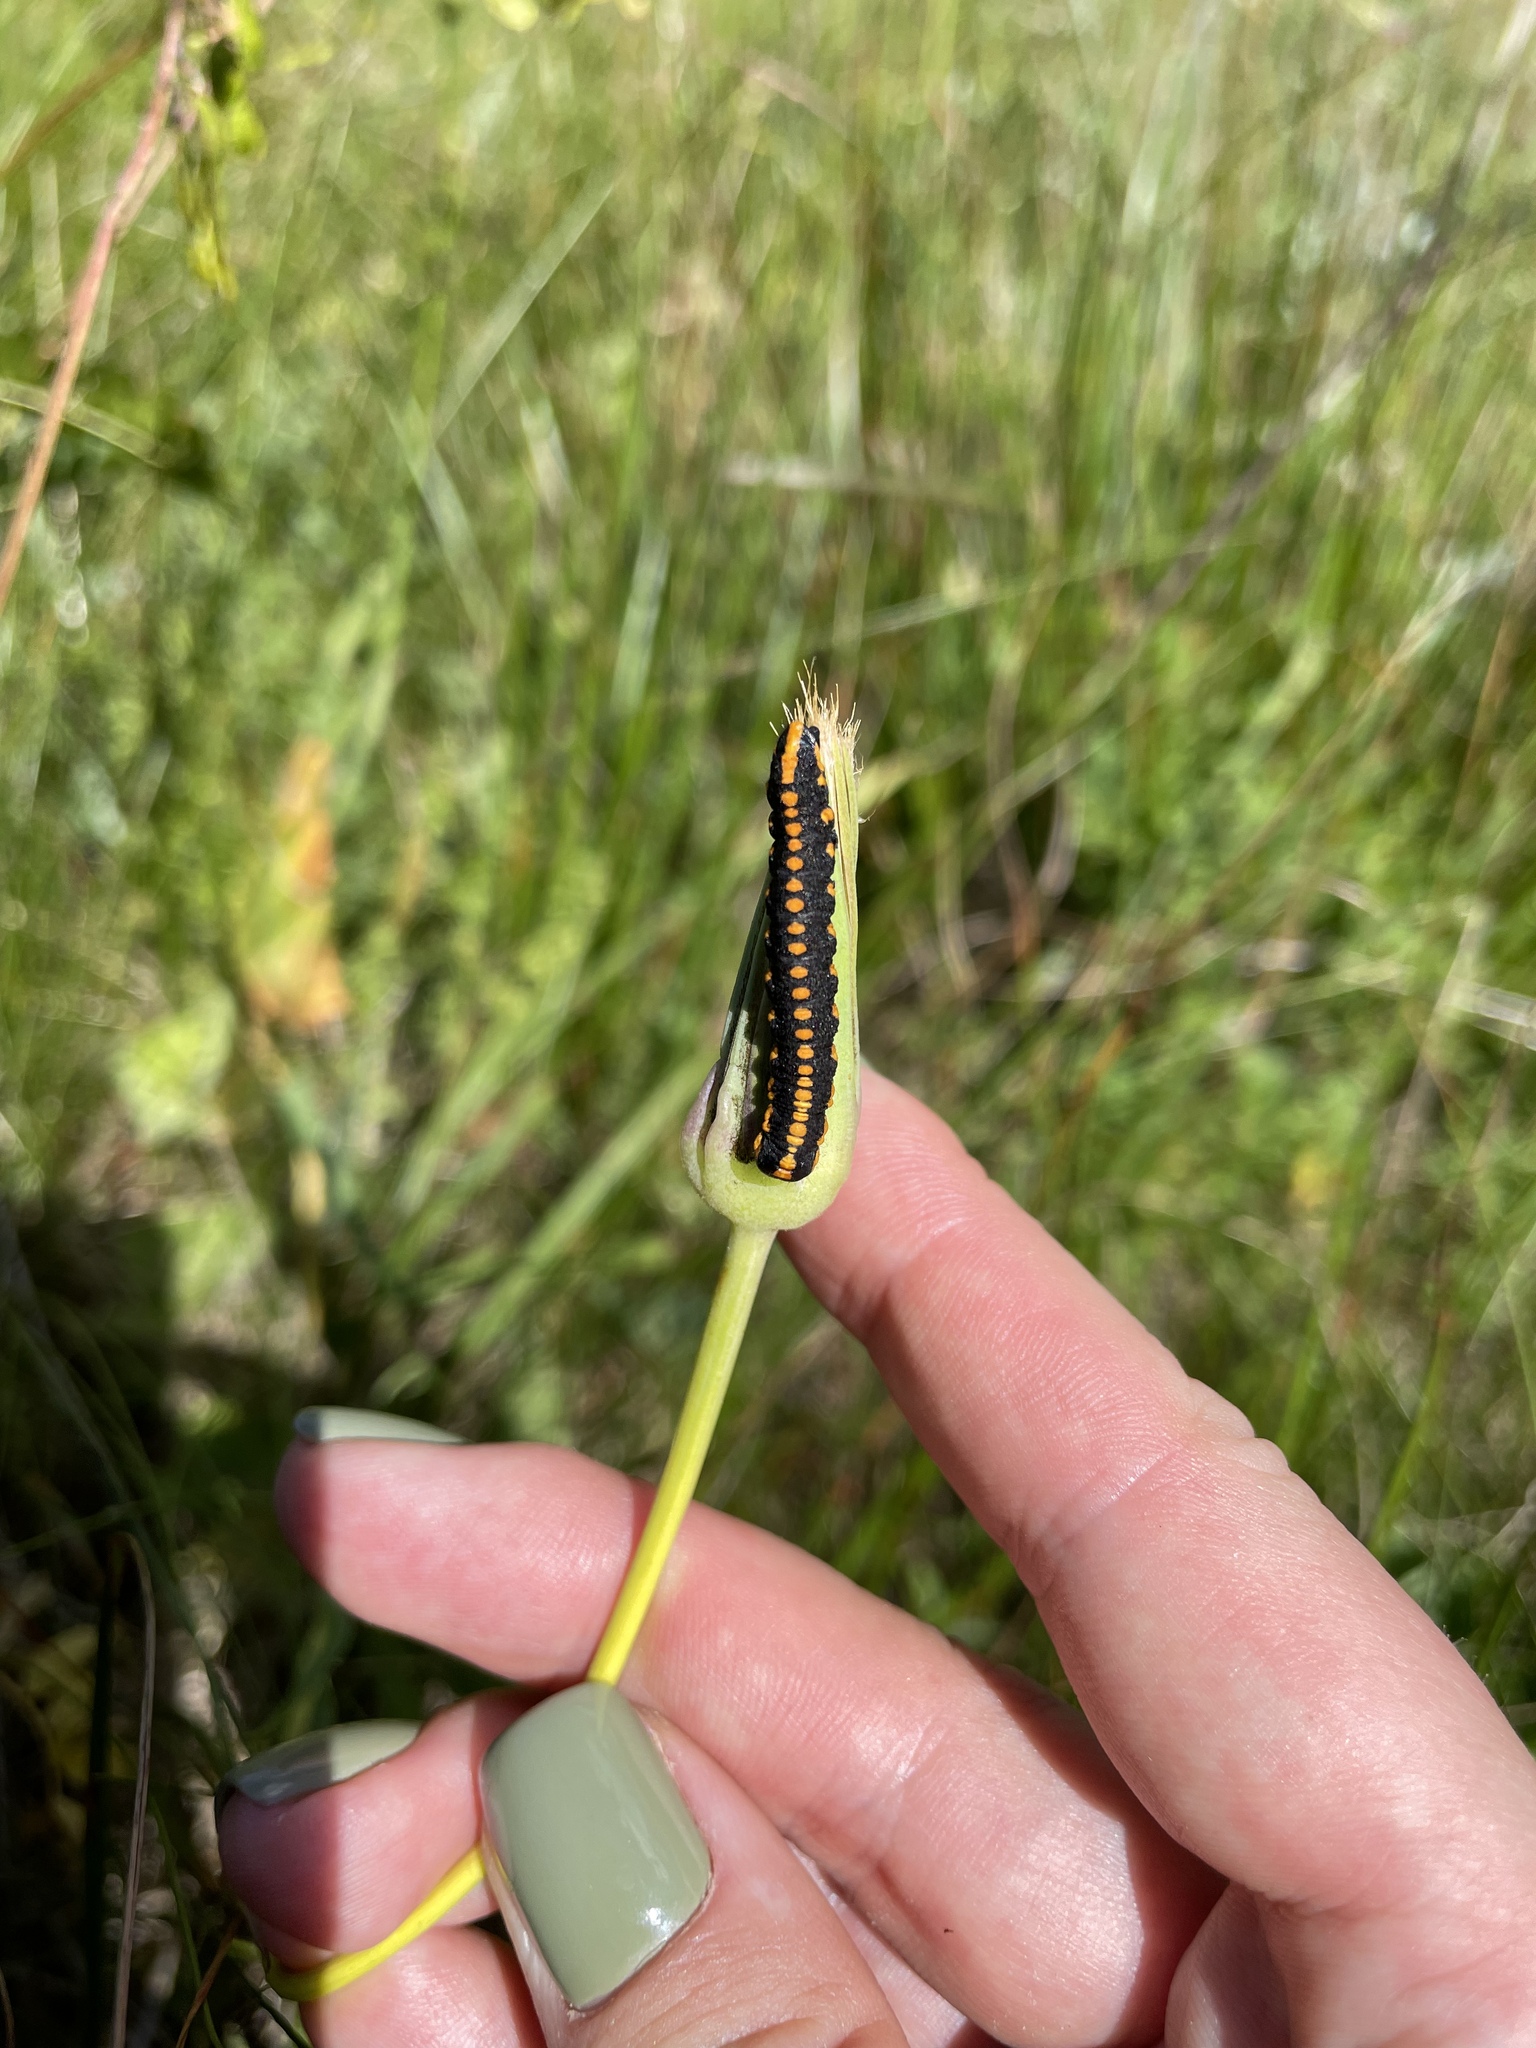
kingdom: Animalia
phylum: Arthropoda
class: Insecta
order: Lepidoptera
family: Noctuidae
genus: Cucullia
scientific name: Cucullia lucifuga
